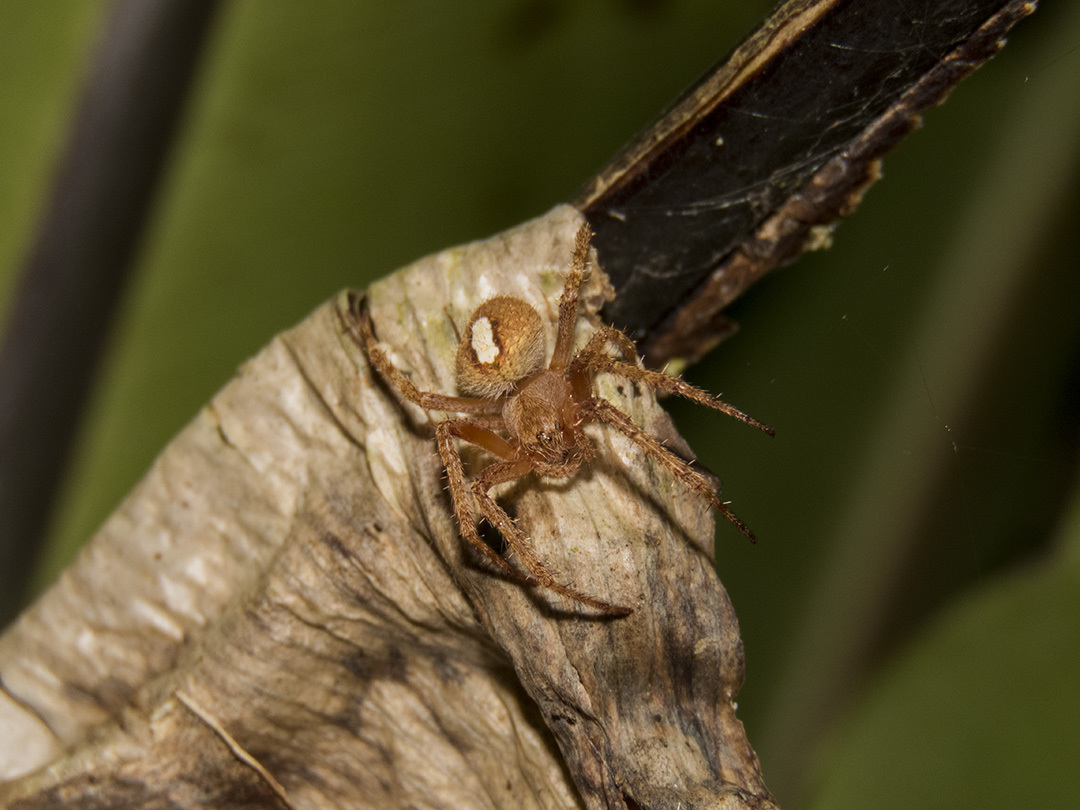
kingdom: Animalia
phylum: Arthropoda
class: Arachnida
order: Araneae
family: Araneidae
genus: Neoscona
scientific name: Neoscona punctigera
